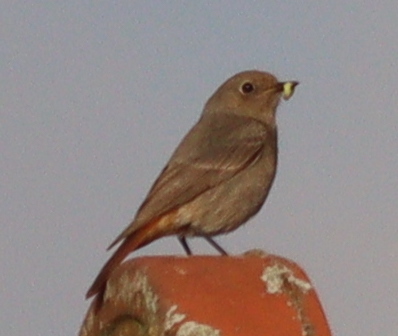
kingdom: Animalia
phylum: Chordata
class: Aves
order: Passeriformes
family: Muscicapidae
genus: Phoenicurus
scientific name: Phoenicurus ochruros
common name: Black redstart
